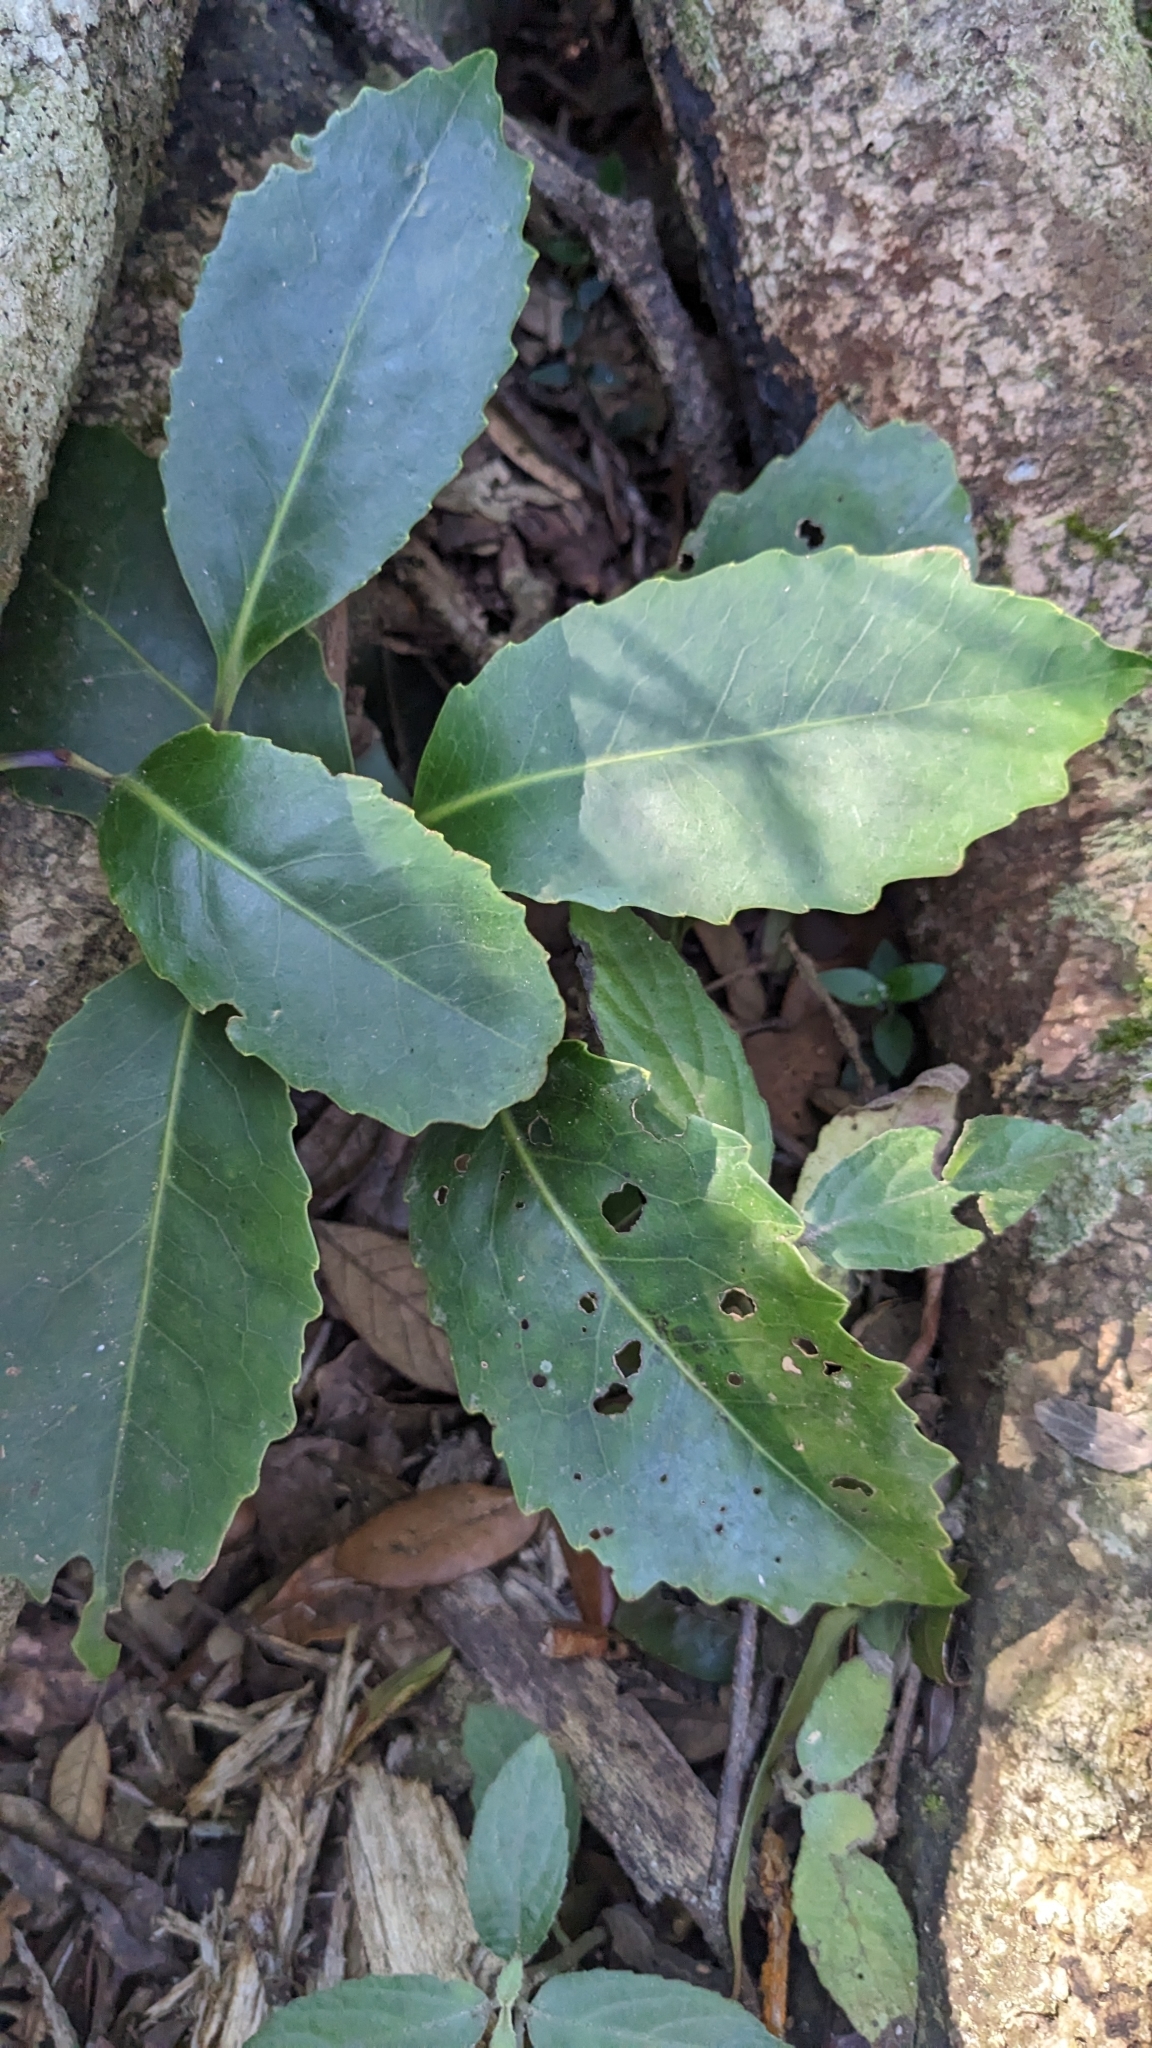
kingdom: Plantae
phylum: Tracheophyta
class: Magnoliopsida
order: Proteales
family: Proteaceae
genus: Helicia
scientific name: Helicia rengetiensis
